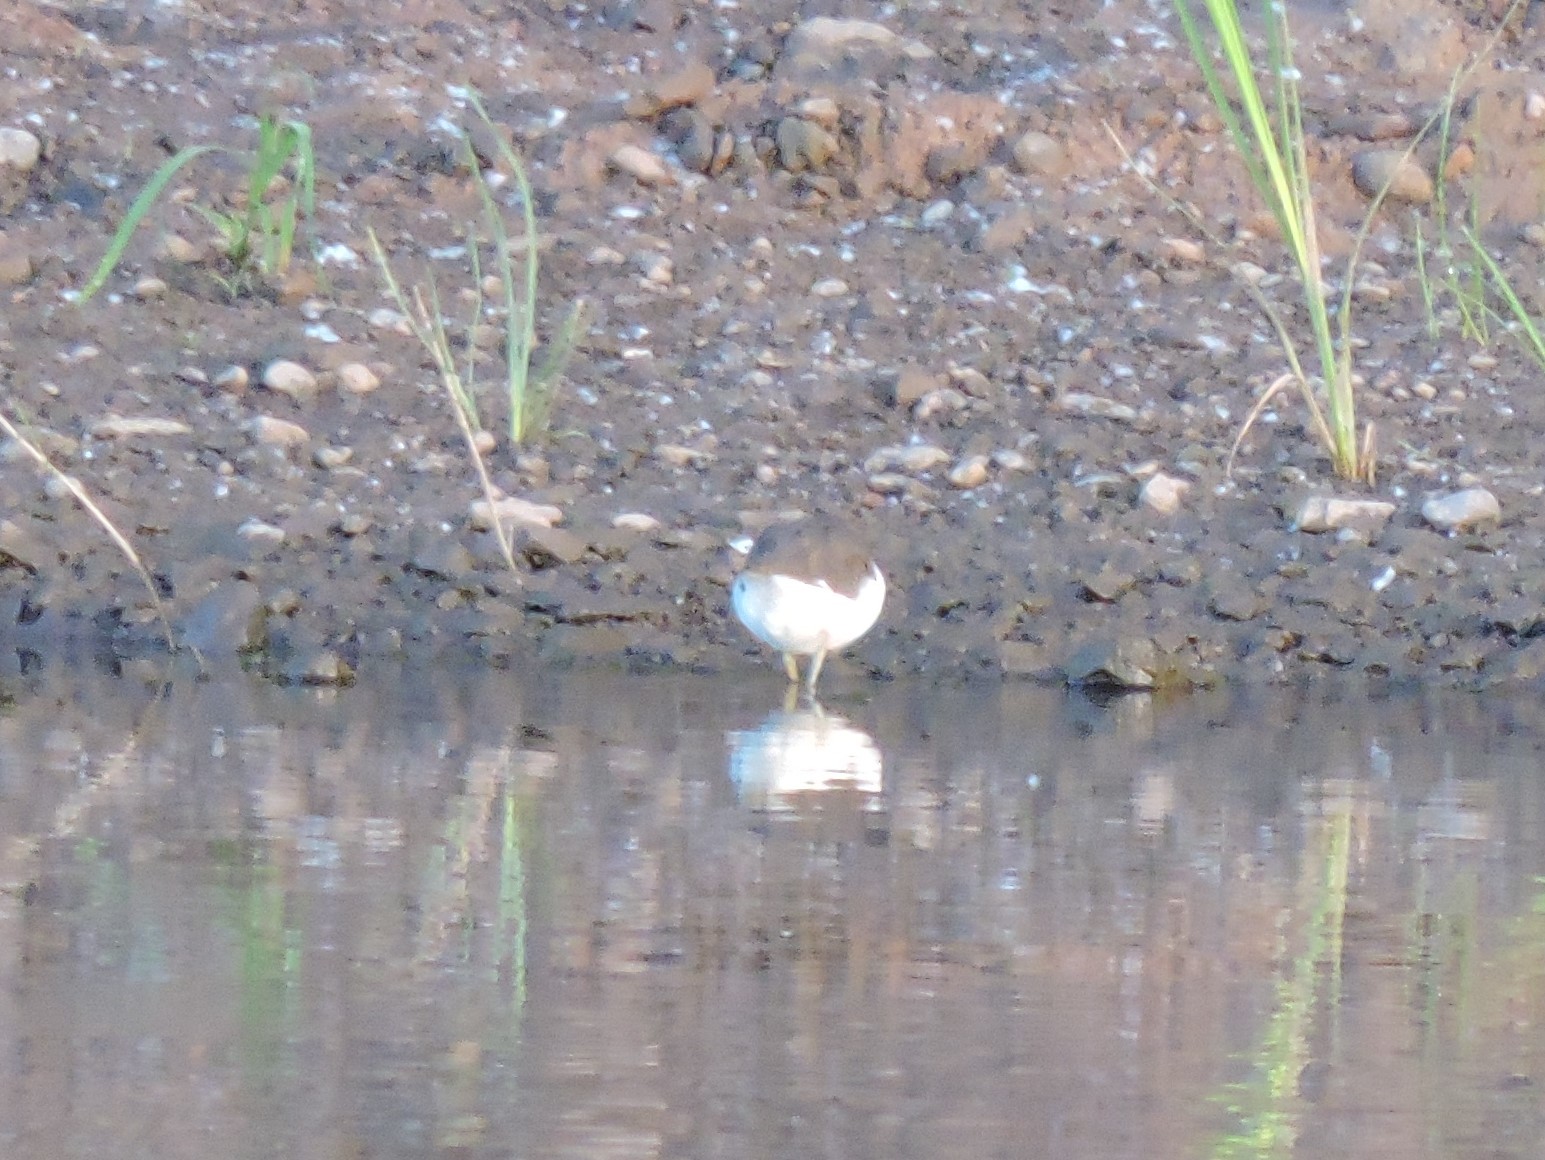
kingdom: Animalia
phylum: Chordata
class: Aves
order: Charadriiformes
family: Scolopacidae
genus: Actitis
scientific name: Actitis hypoleucos
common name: Common sandpiper
